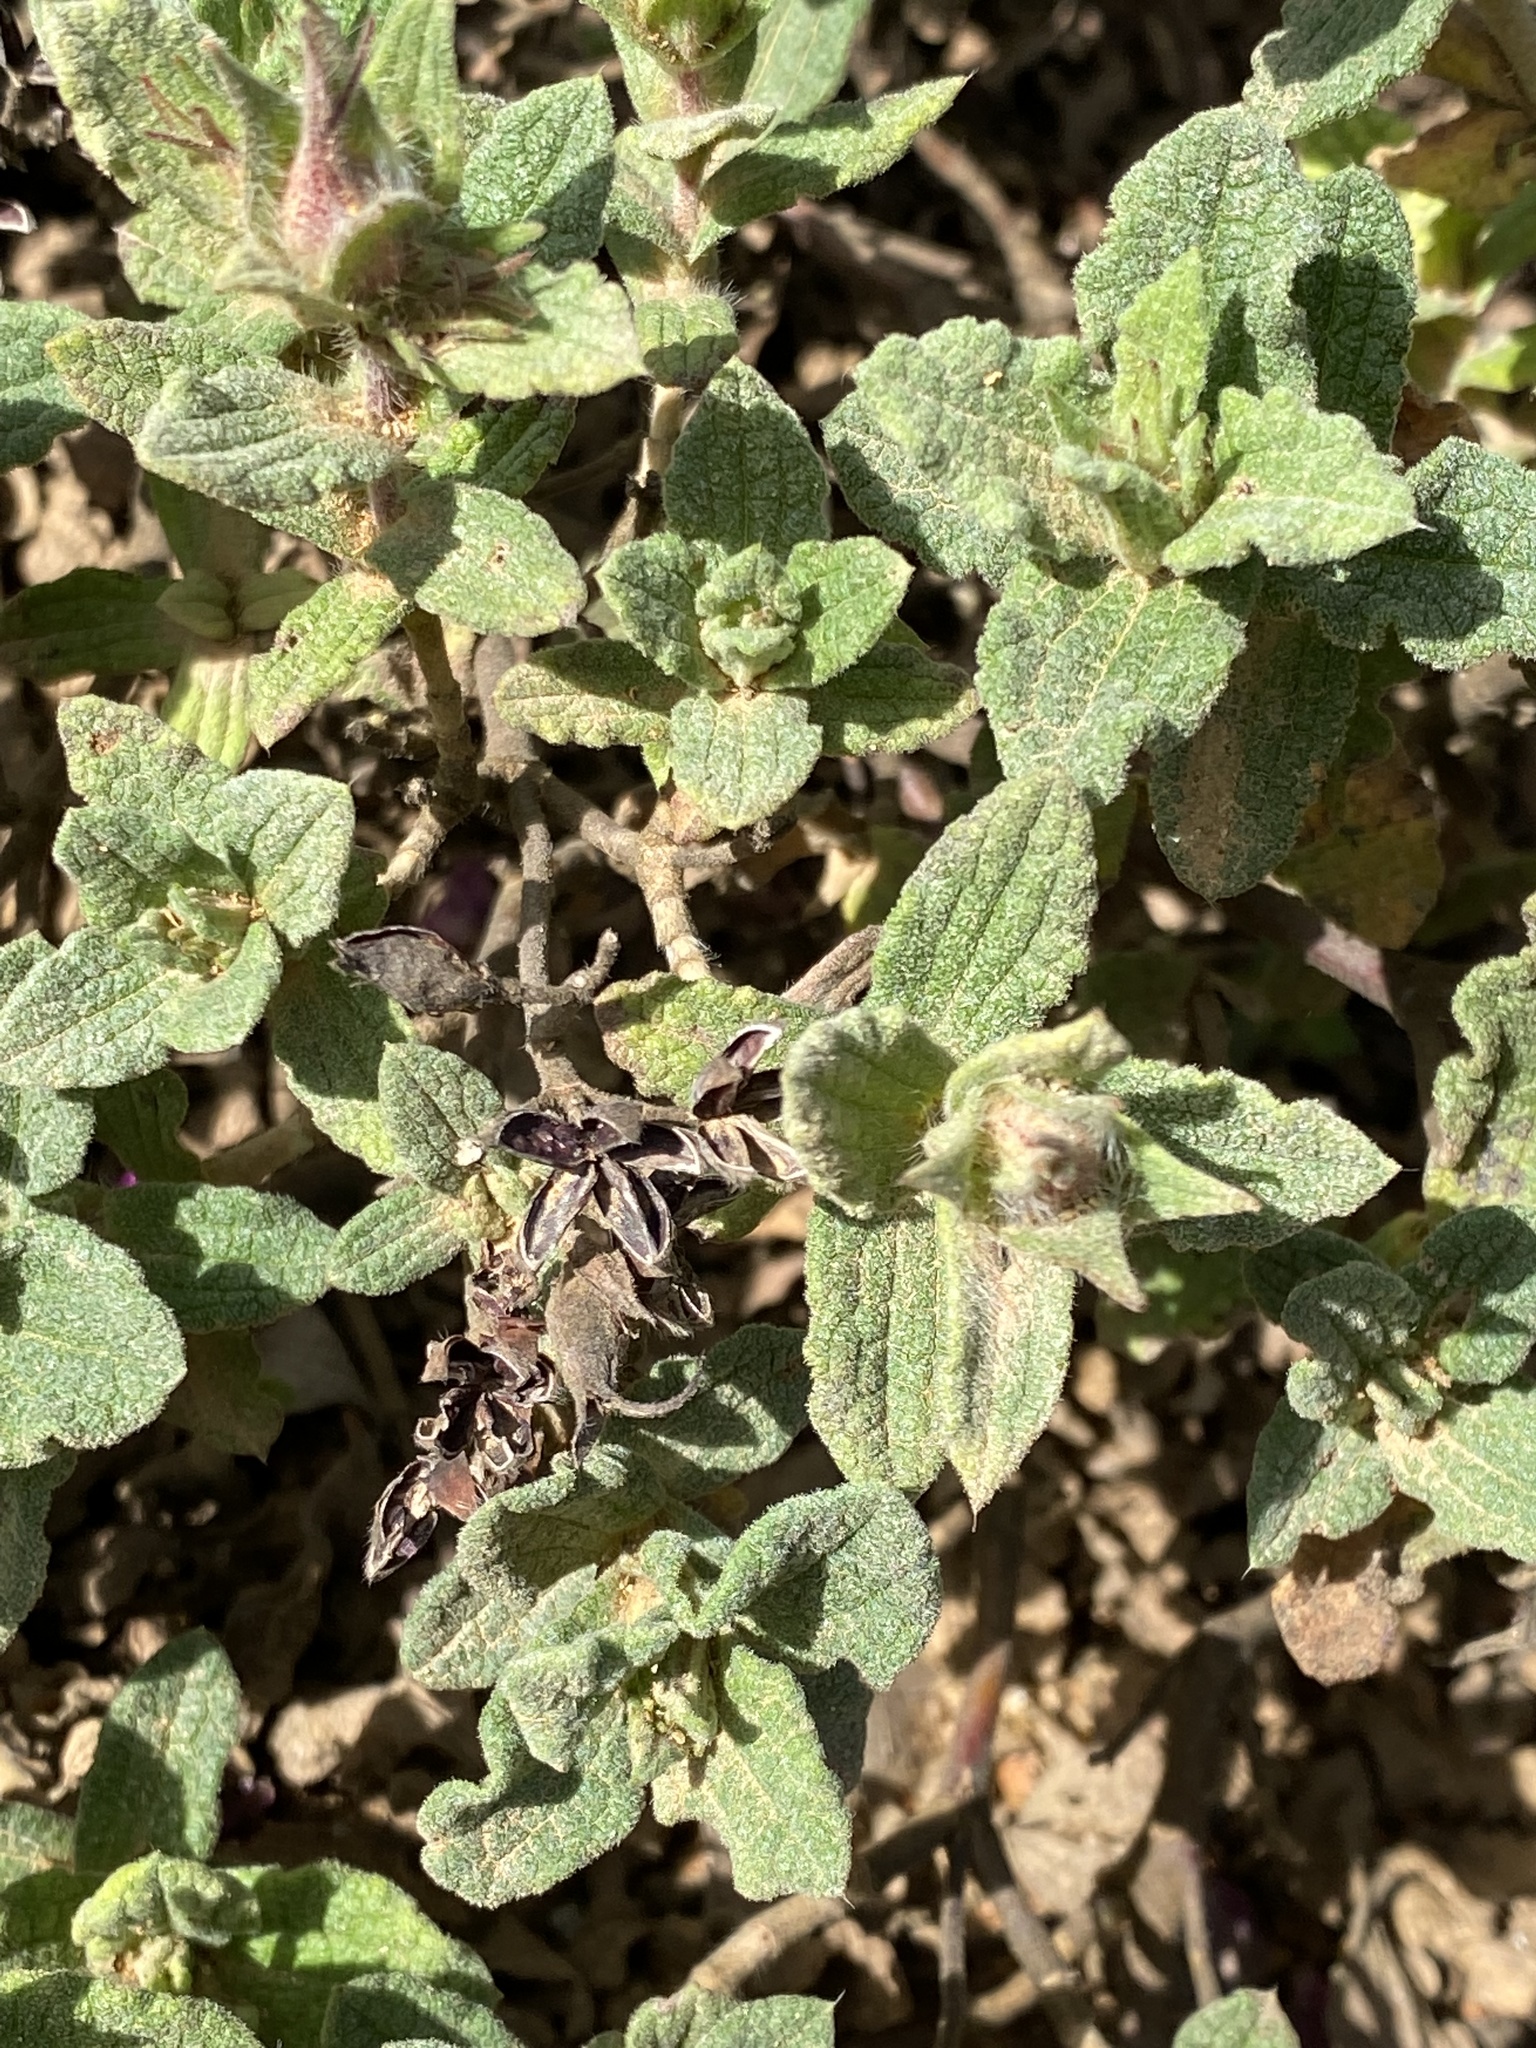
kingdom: Plantae
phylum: Tracheophyta
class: Magnoliopsida
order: Malvales
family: Cistaceae
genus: Cistus
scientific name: Cistus crispus
